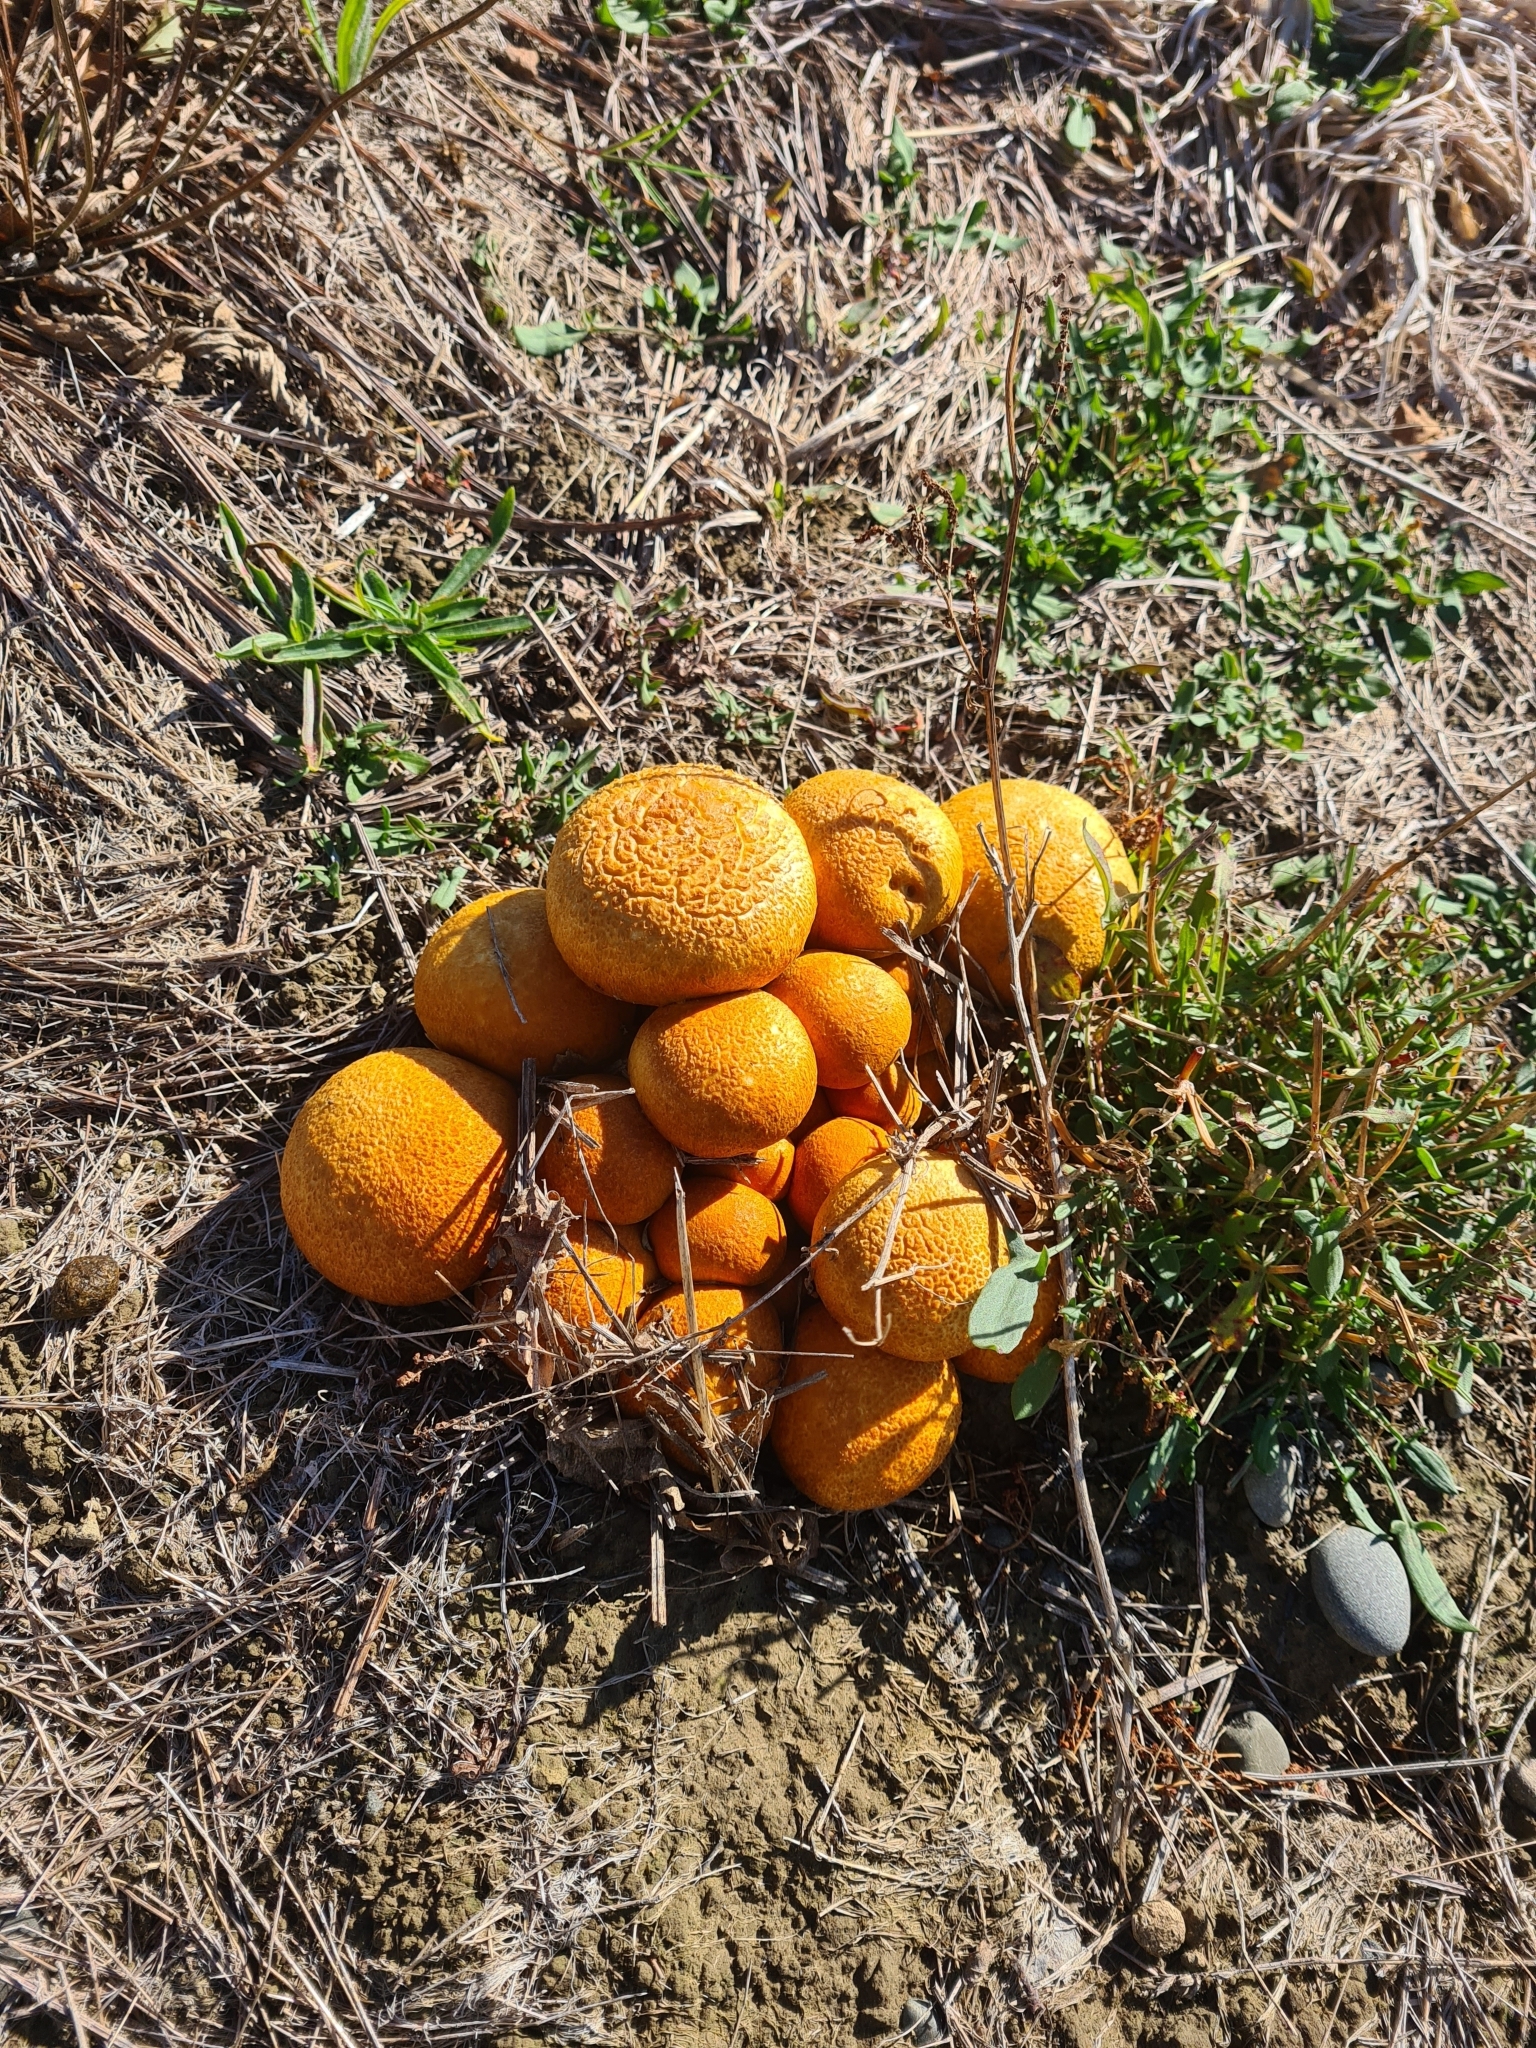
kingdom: Fungi
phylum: Basidiomycota
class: Agaricomycetes
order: Agaricales
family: Hymenogastraceae
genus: Gymnopilus
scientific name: Gymnopilus junonius
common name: Spectacular rustgill
